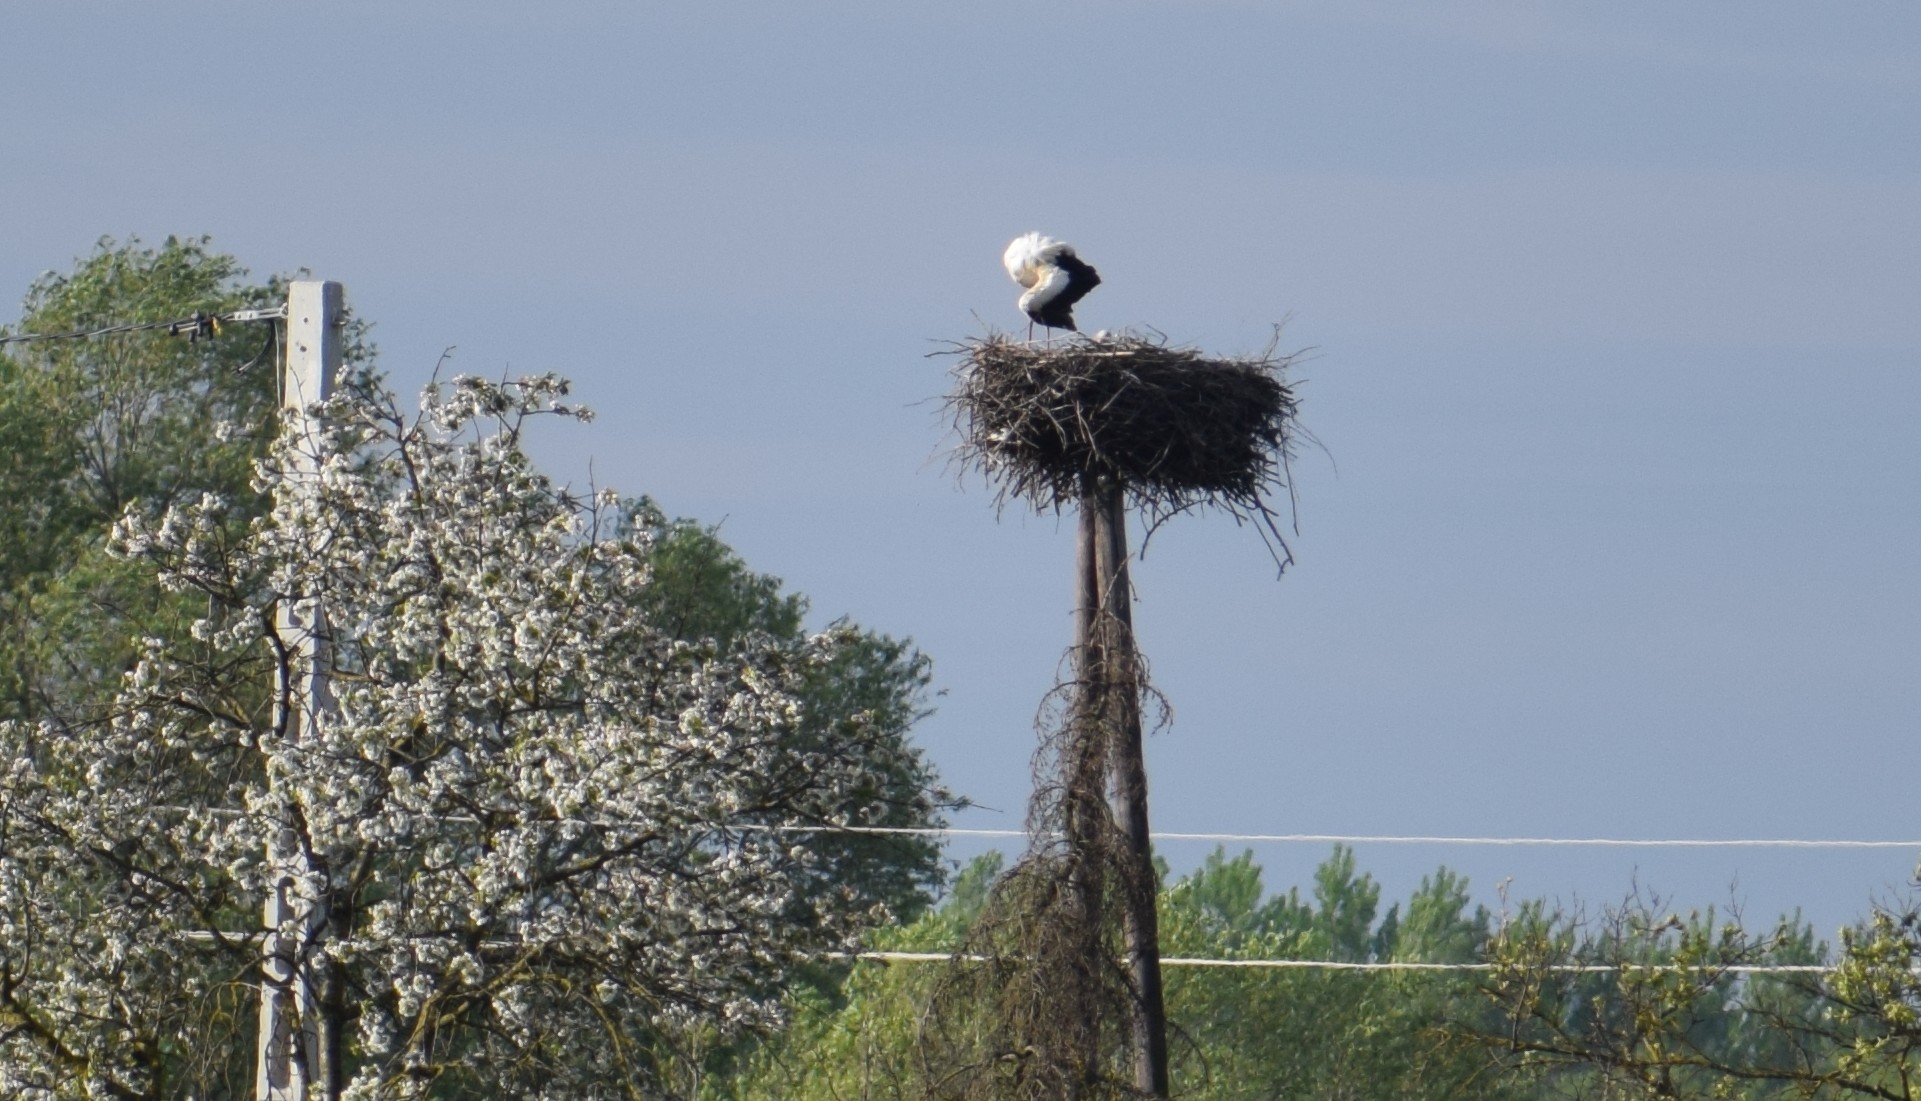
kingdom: Animalia
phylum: Chordata
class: Aves
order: Ciconiiformes
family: Ciconiidae
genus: Ciconia
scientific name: Ciconia ciconia
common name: White stork
